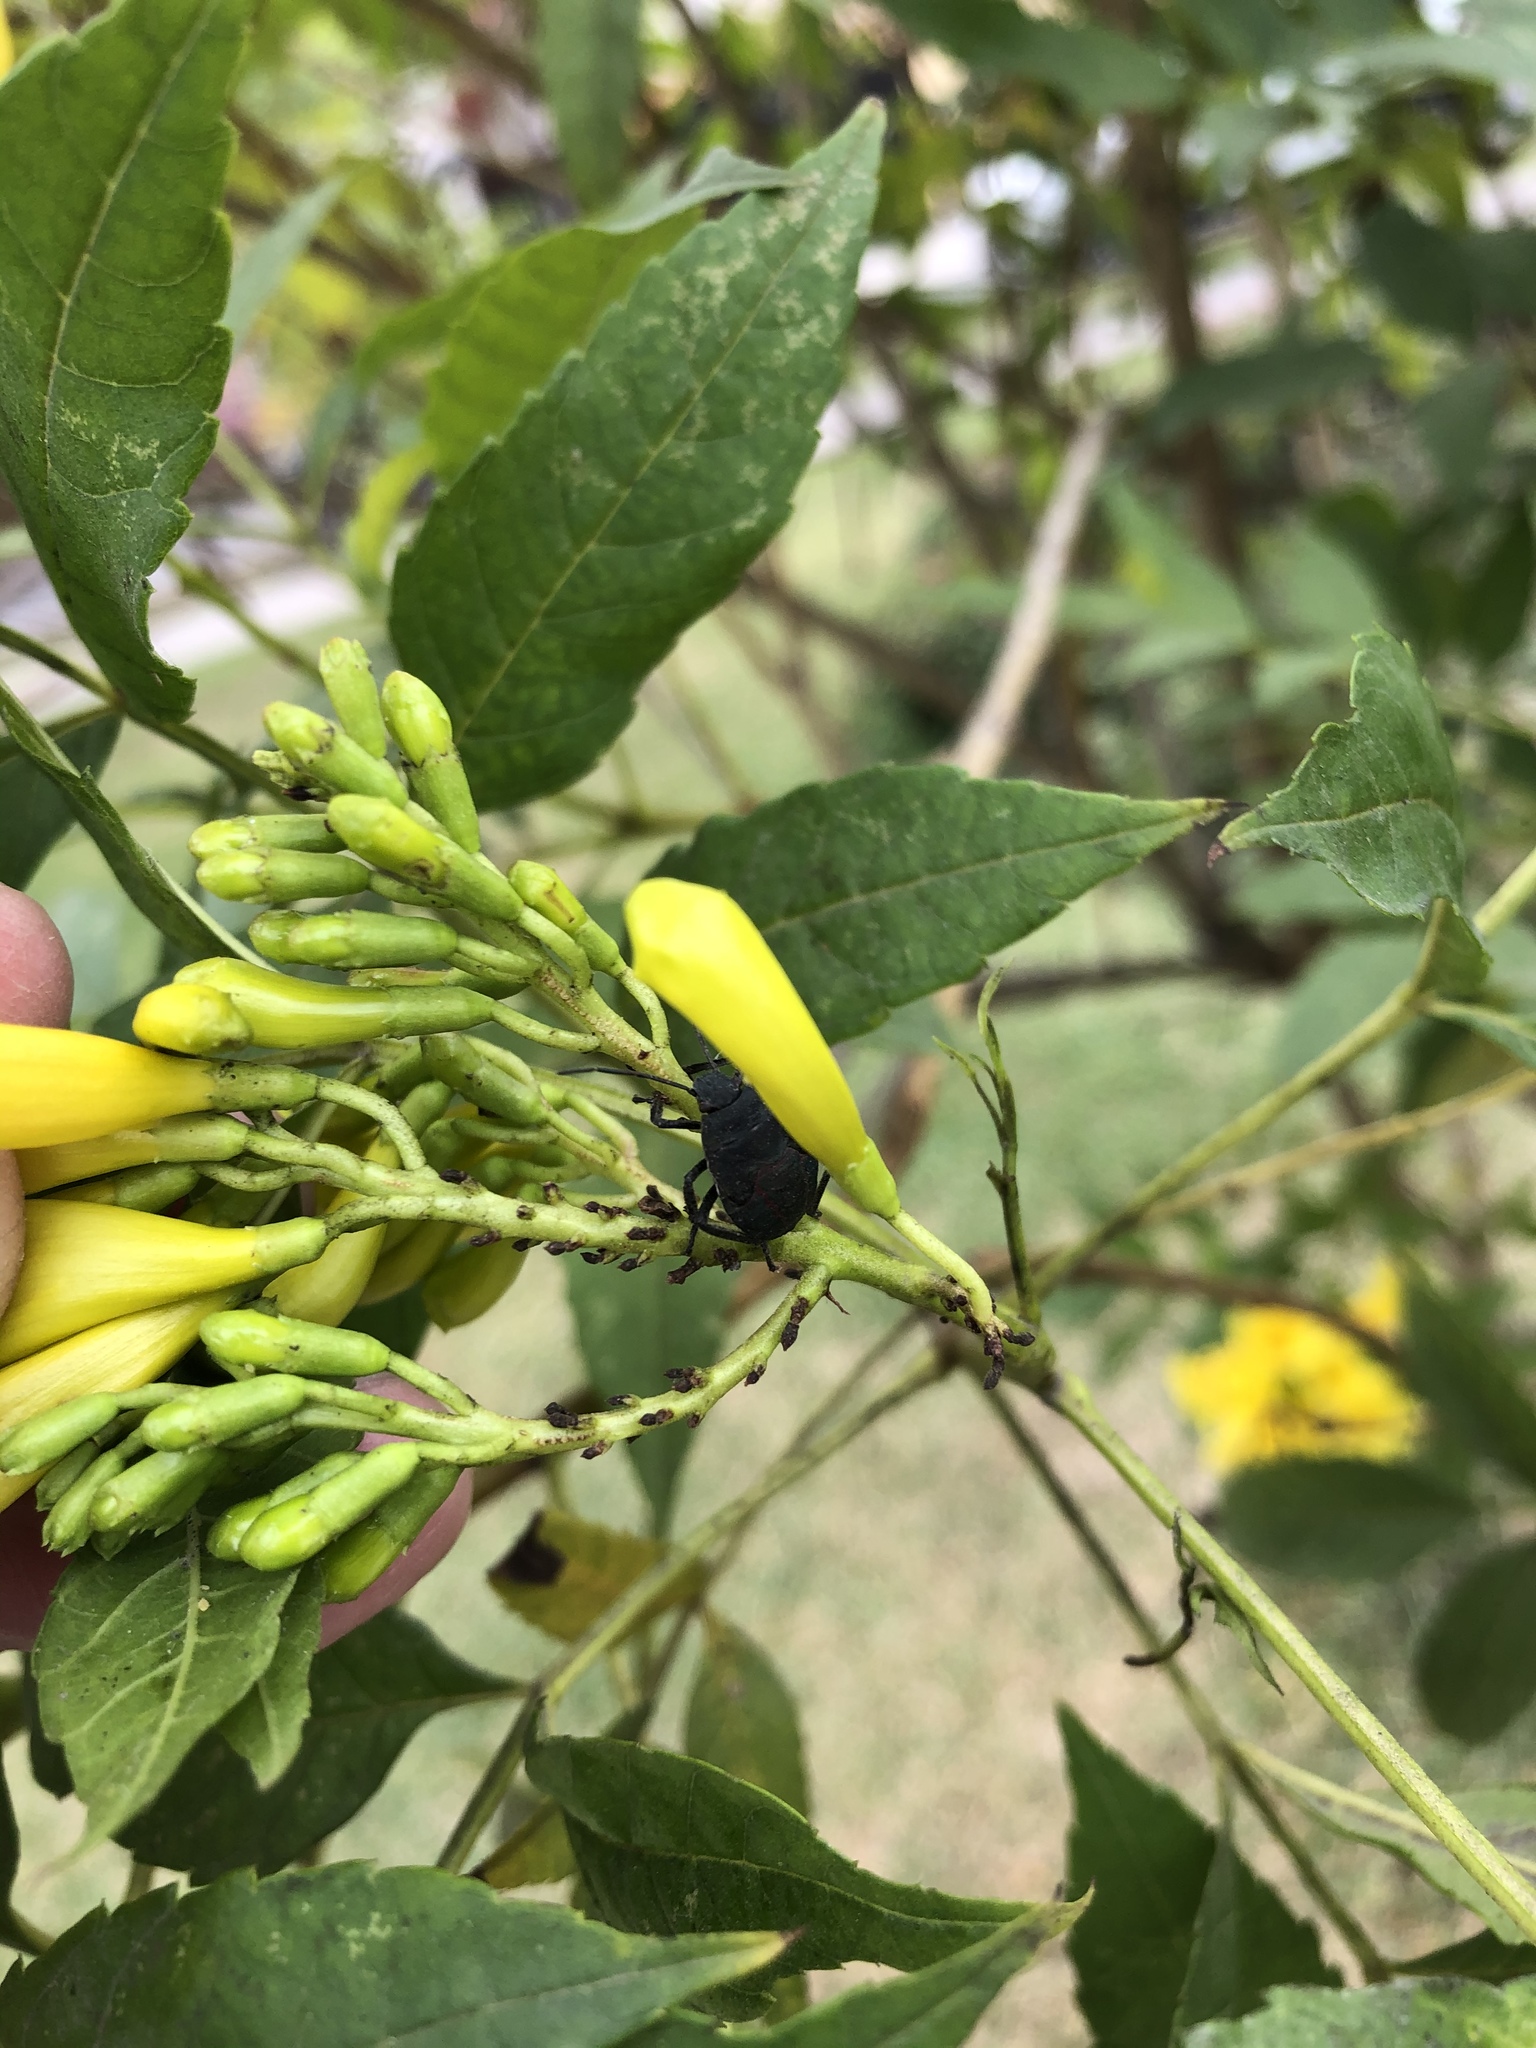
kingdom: Animalia
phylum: Arthropoda
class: Insecta
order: Hemiptera
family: Pentatomidae
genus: Pellaea
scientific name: Pellaea stictica
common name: Stink bug
